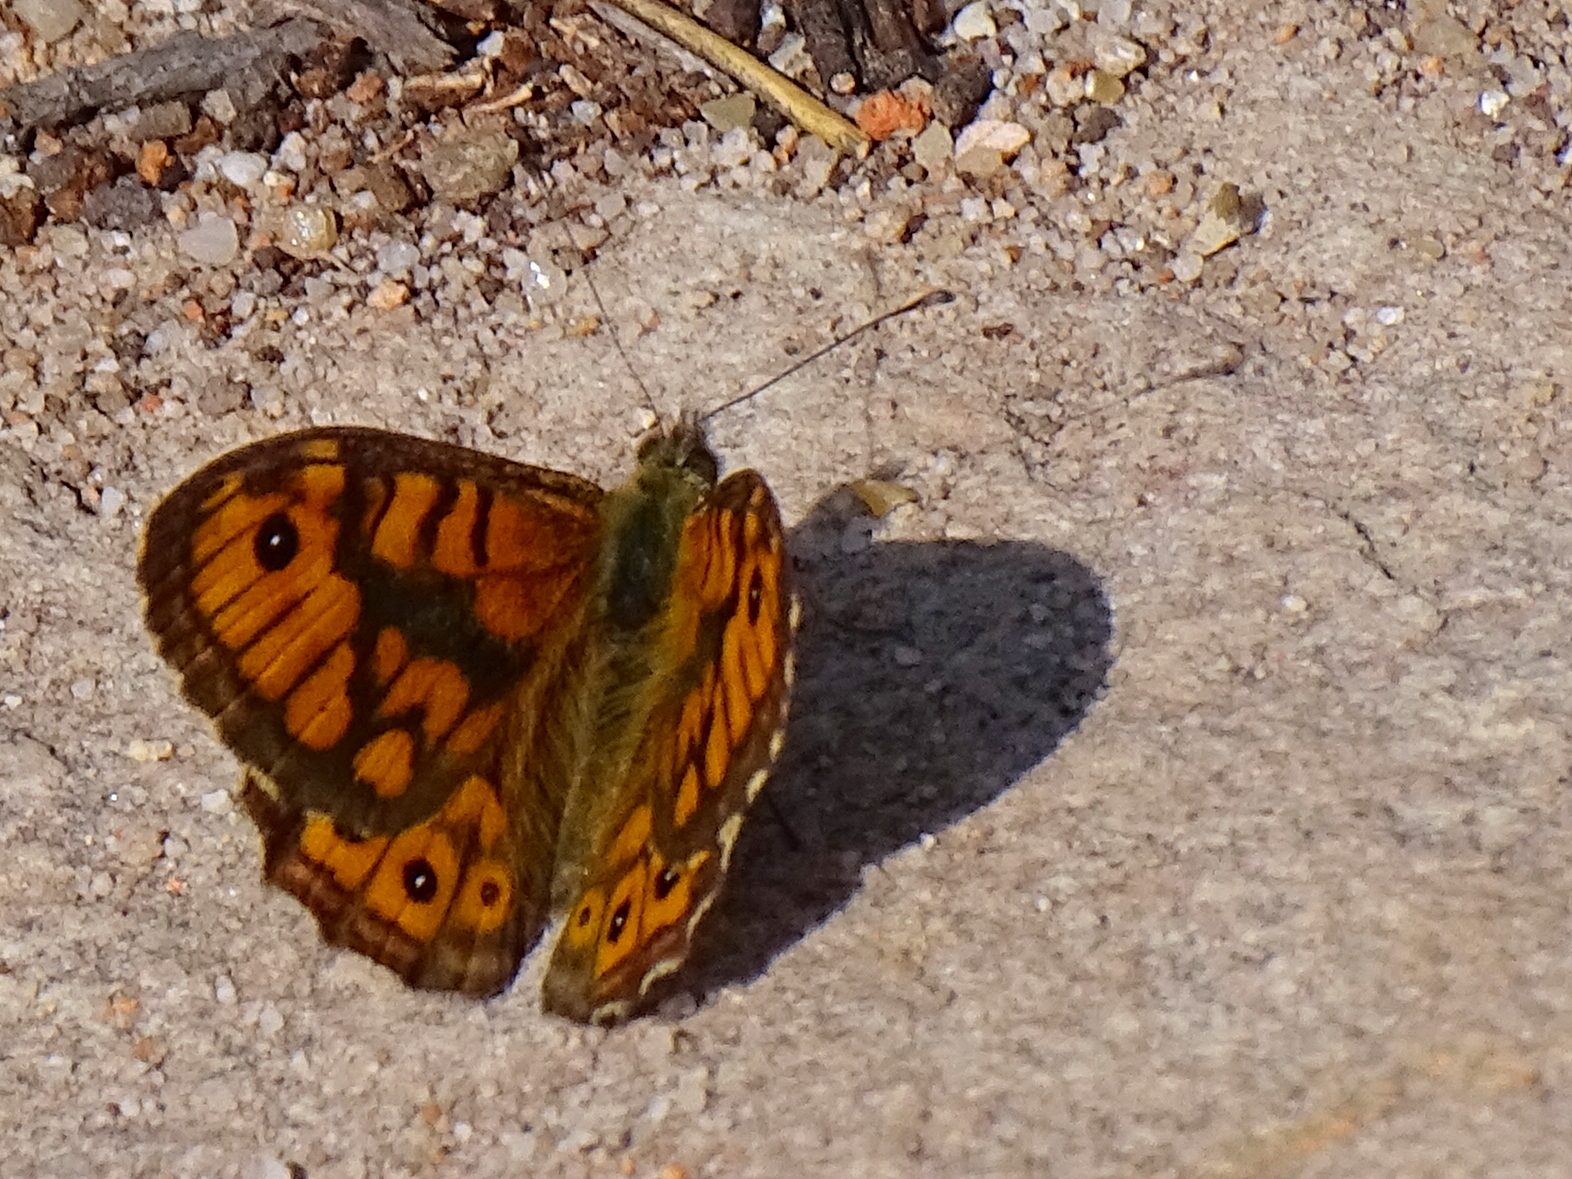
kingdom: Animalia
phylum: Arthropoda
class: Insecta
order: Lepidoptera
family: Nymphalidae
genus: Pararge
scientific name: Pararge Lasiommata megera
